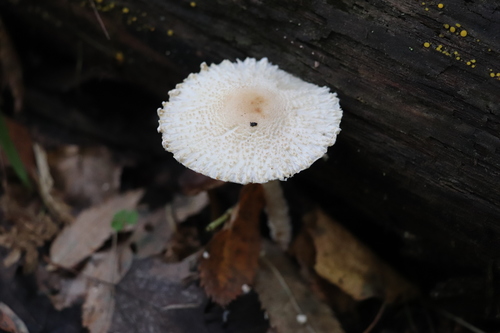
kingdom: Fungi
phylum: Basidiomycota
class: Agaricomycetes
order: Agaricales
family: Agaricaceae
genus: Lepiota
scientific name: Lepiota
